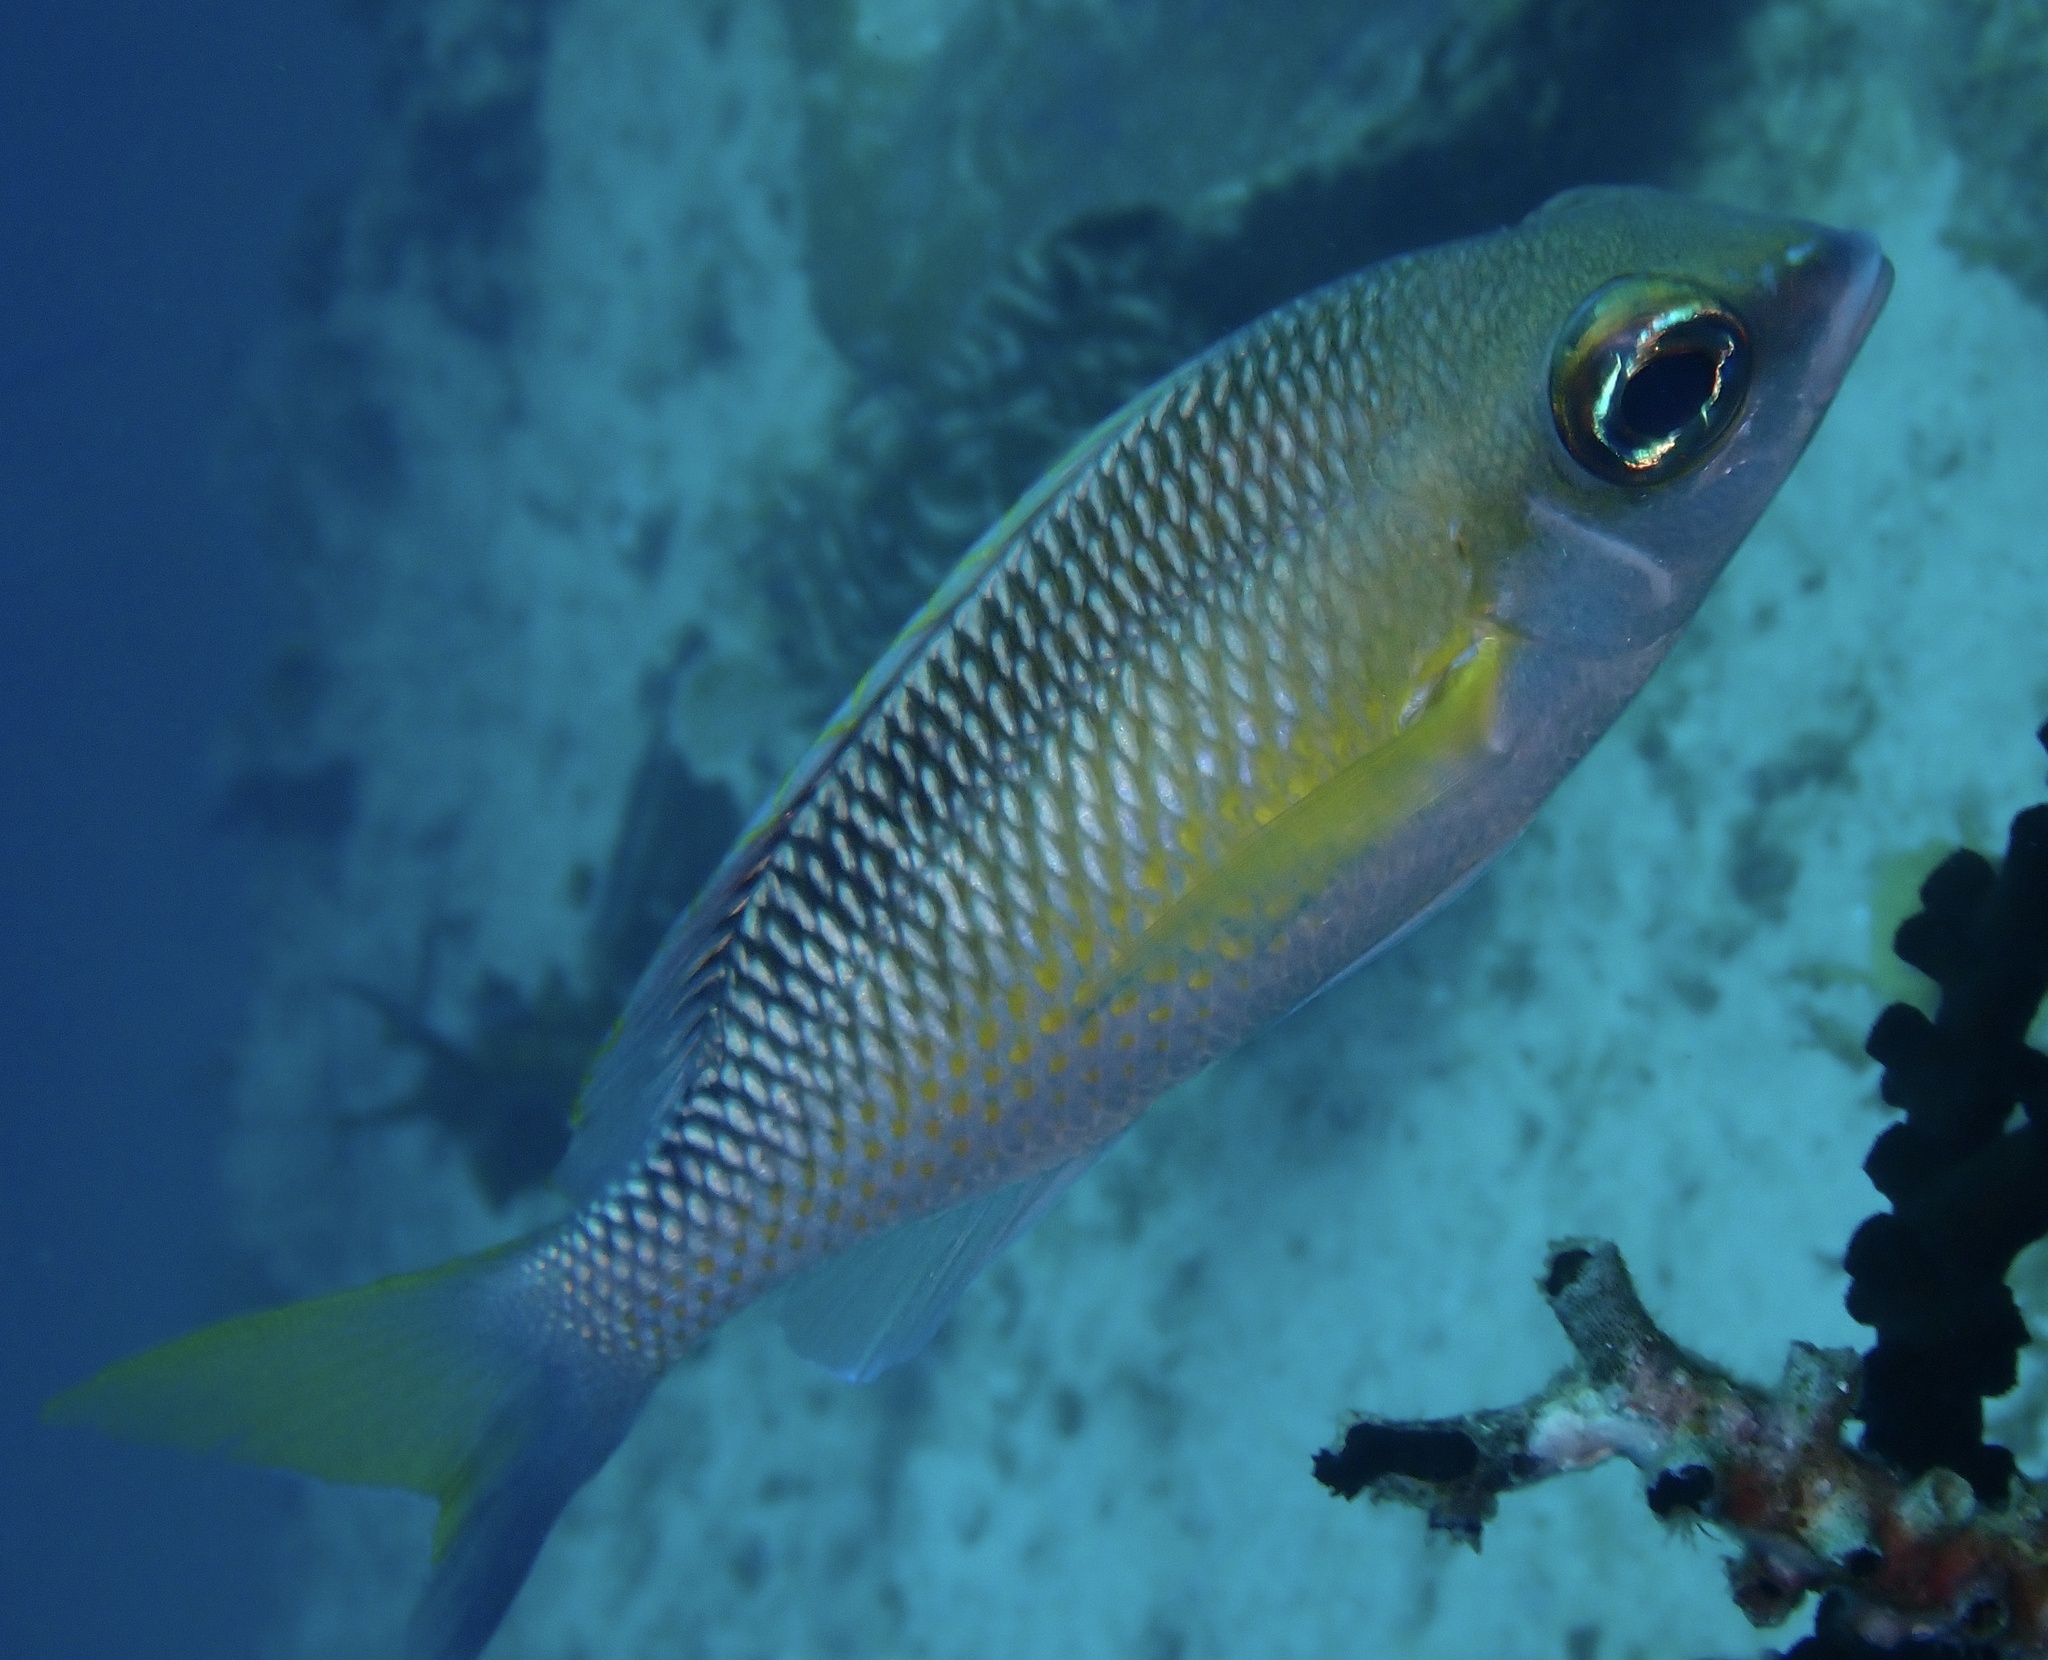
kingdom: Animalia
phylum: Chordata
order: Perciformes
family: Nemipteridae
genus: Scolopsis
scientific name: Scolopsis margaritifera
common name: Pearly monocle bream
